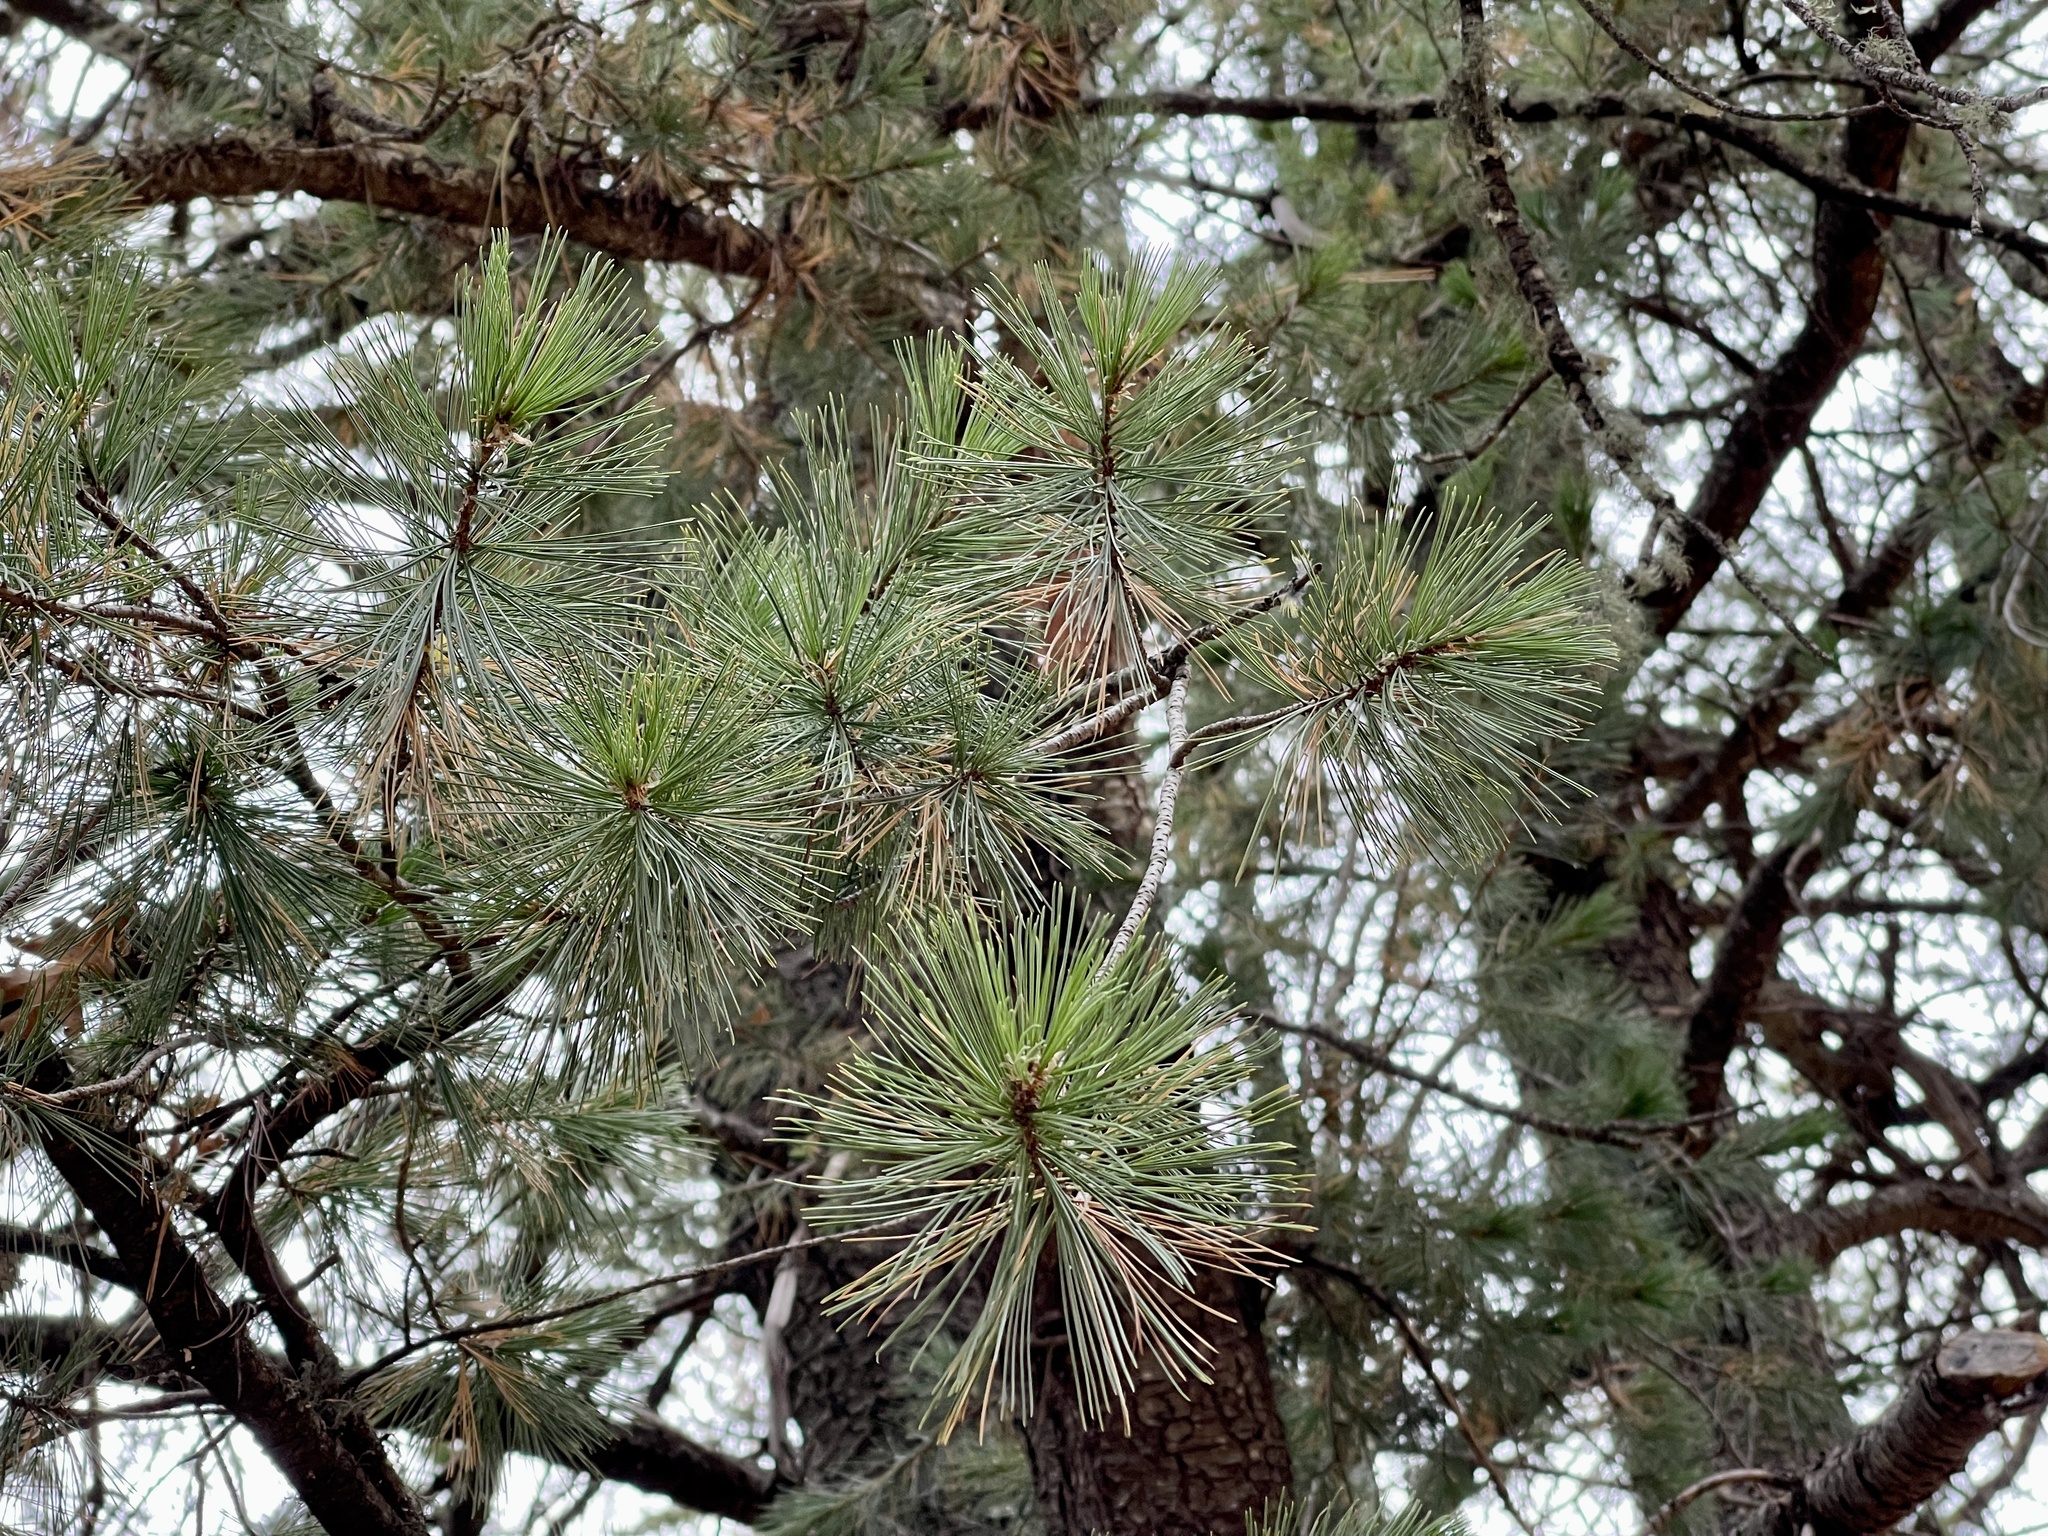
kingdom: Plantae
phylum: Tracheophyta
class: Pinopsida
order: Pinales
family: Pinaceae
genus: Pinus
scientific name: Pinus ponderosa
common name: Western yellow-pine
